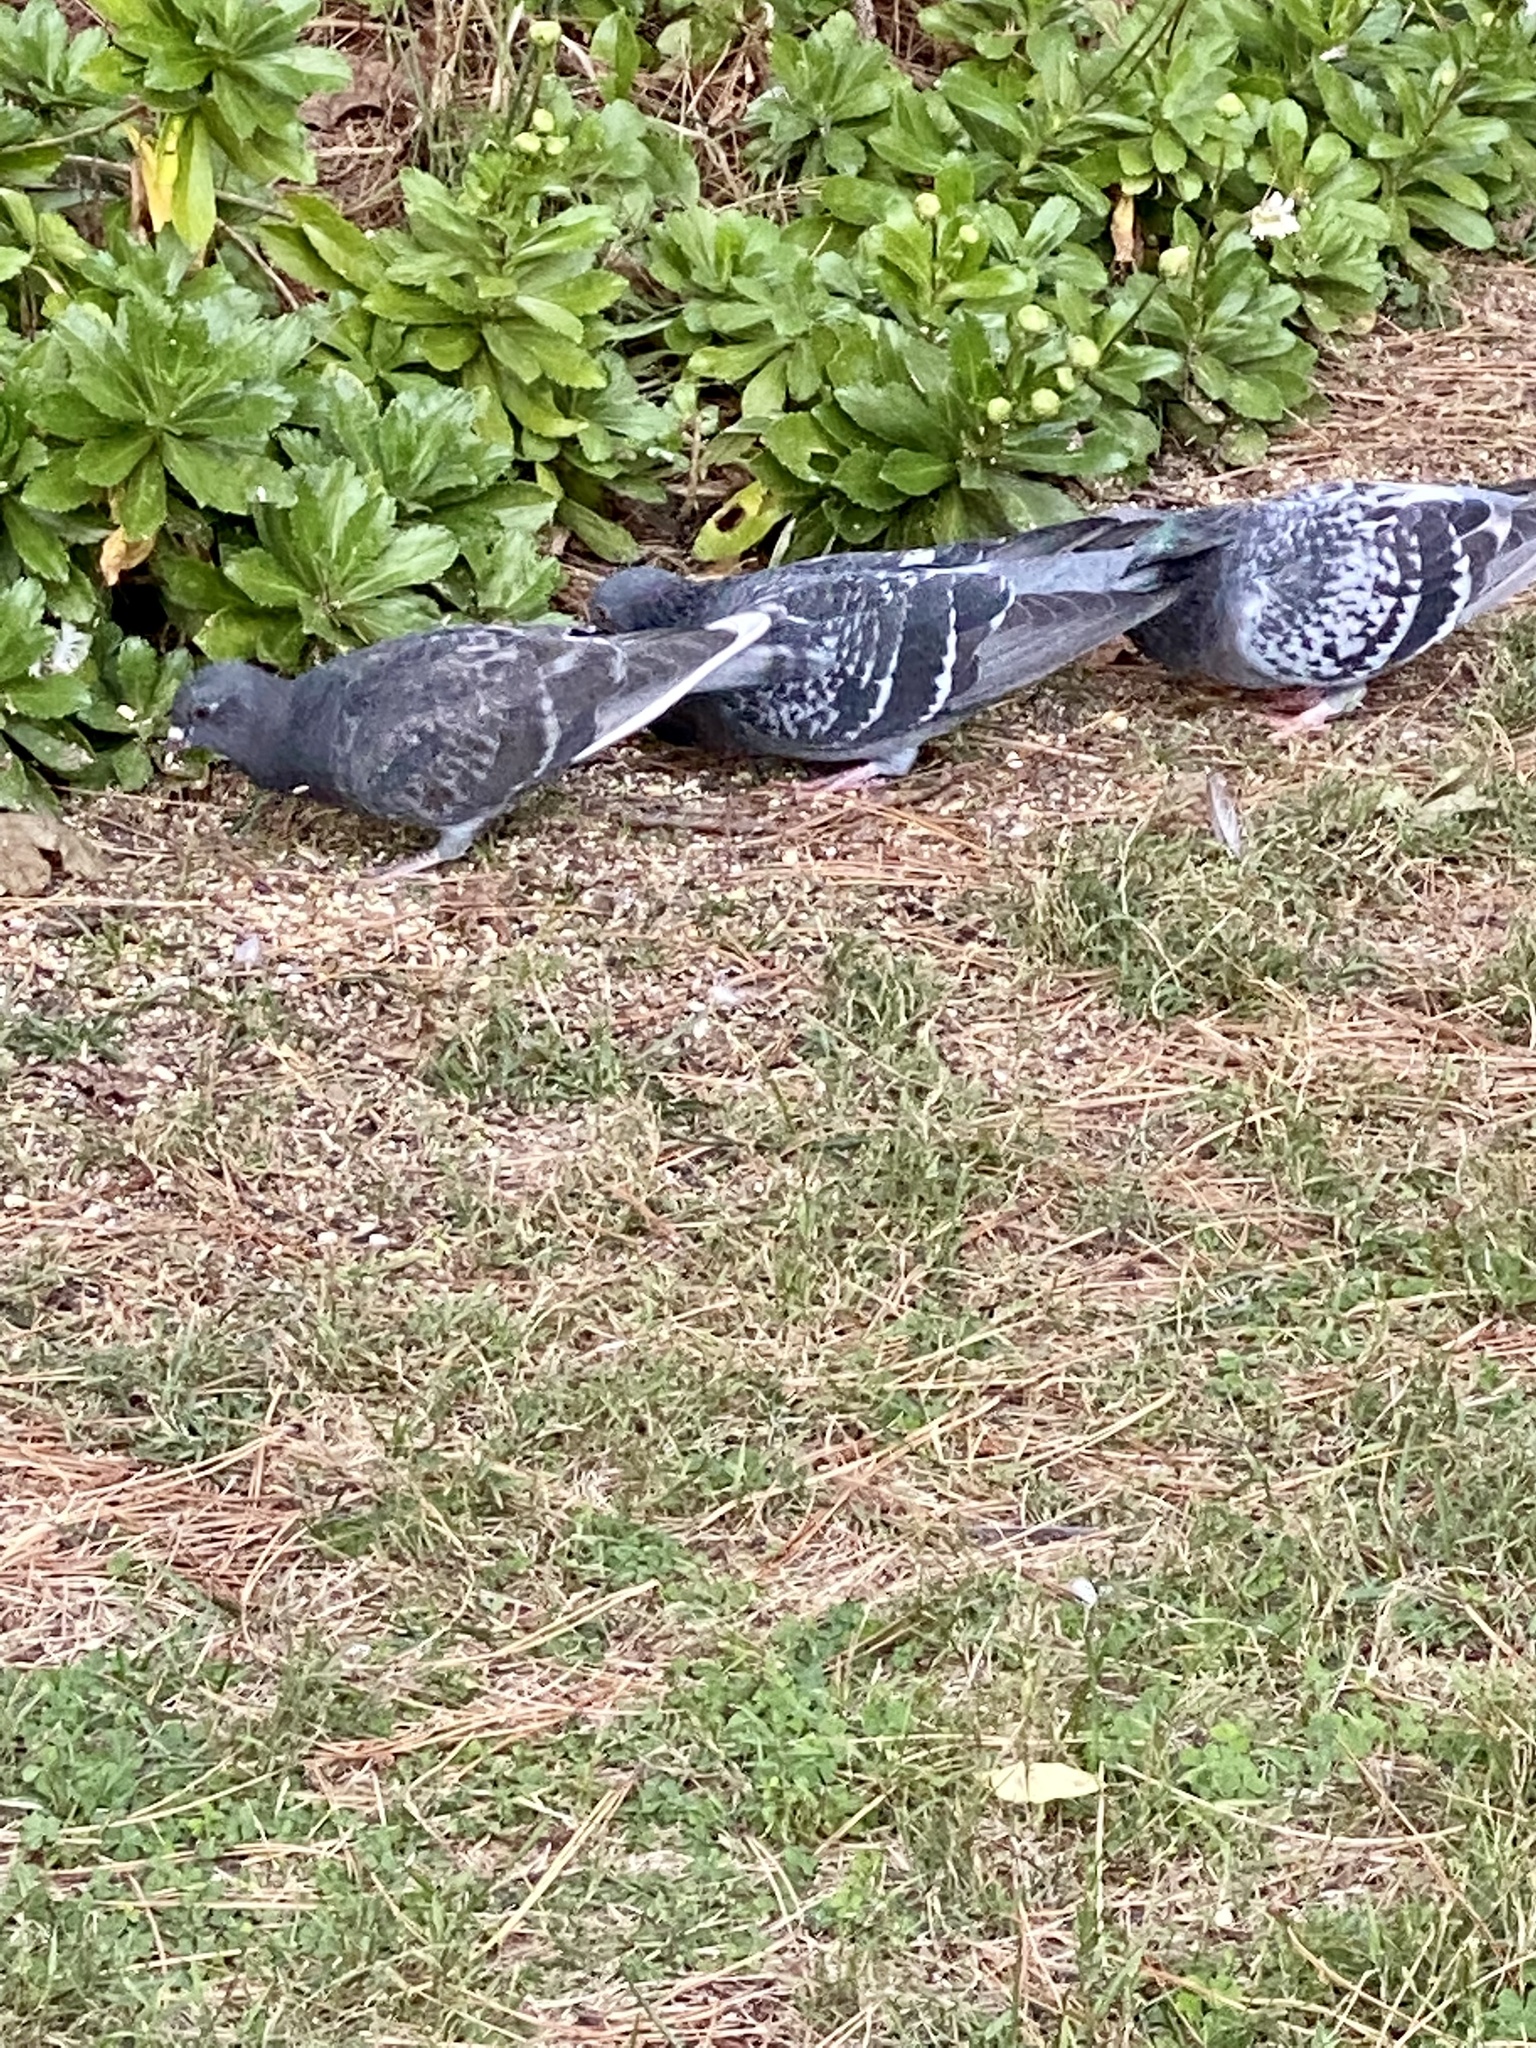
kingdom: Animalia
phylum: Chordata
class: Aves
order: Columbiformes
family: Columbidae
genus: Columba
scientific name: Columba livia
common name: Rock pigeon
